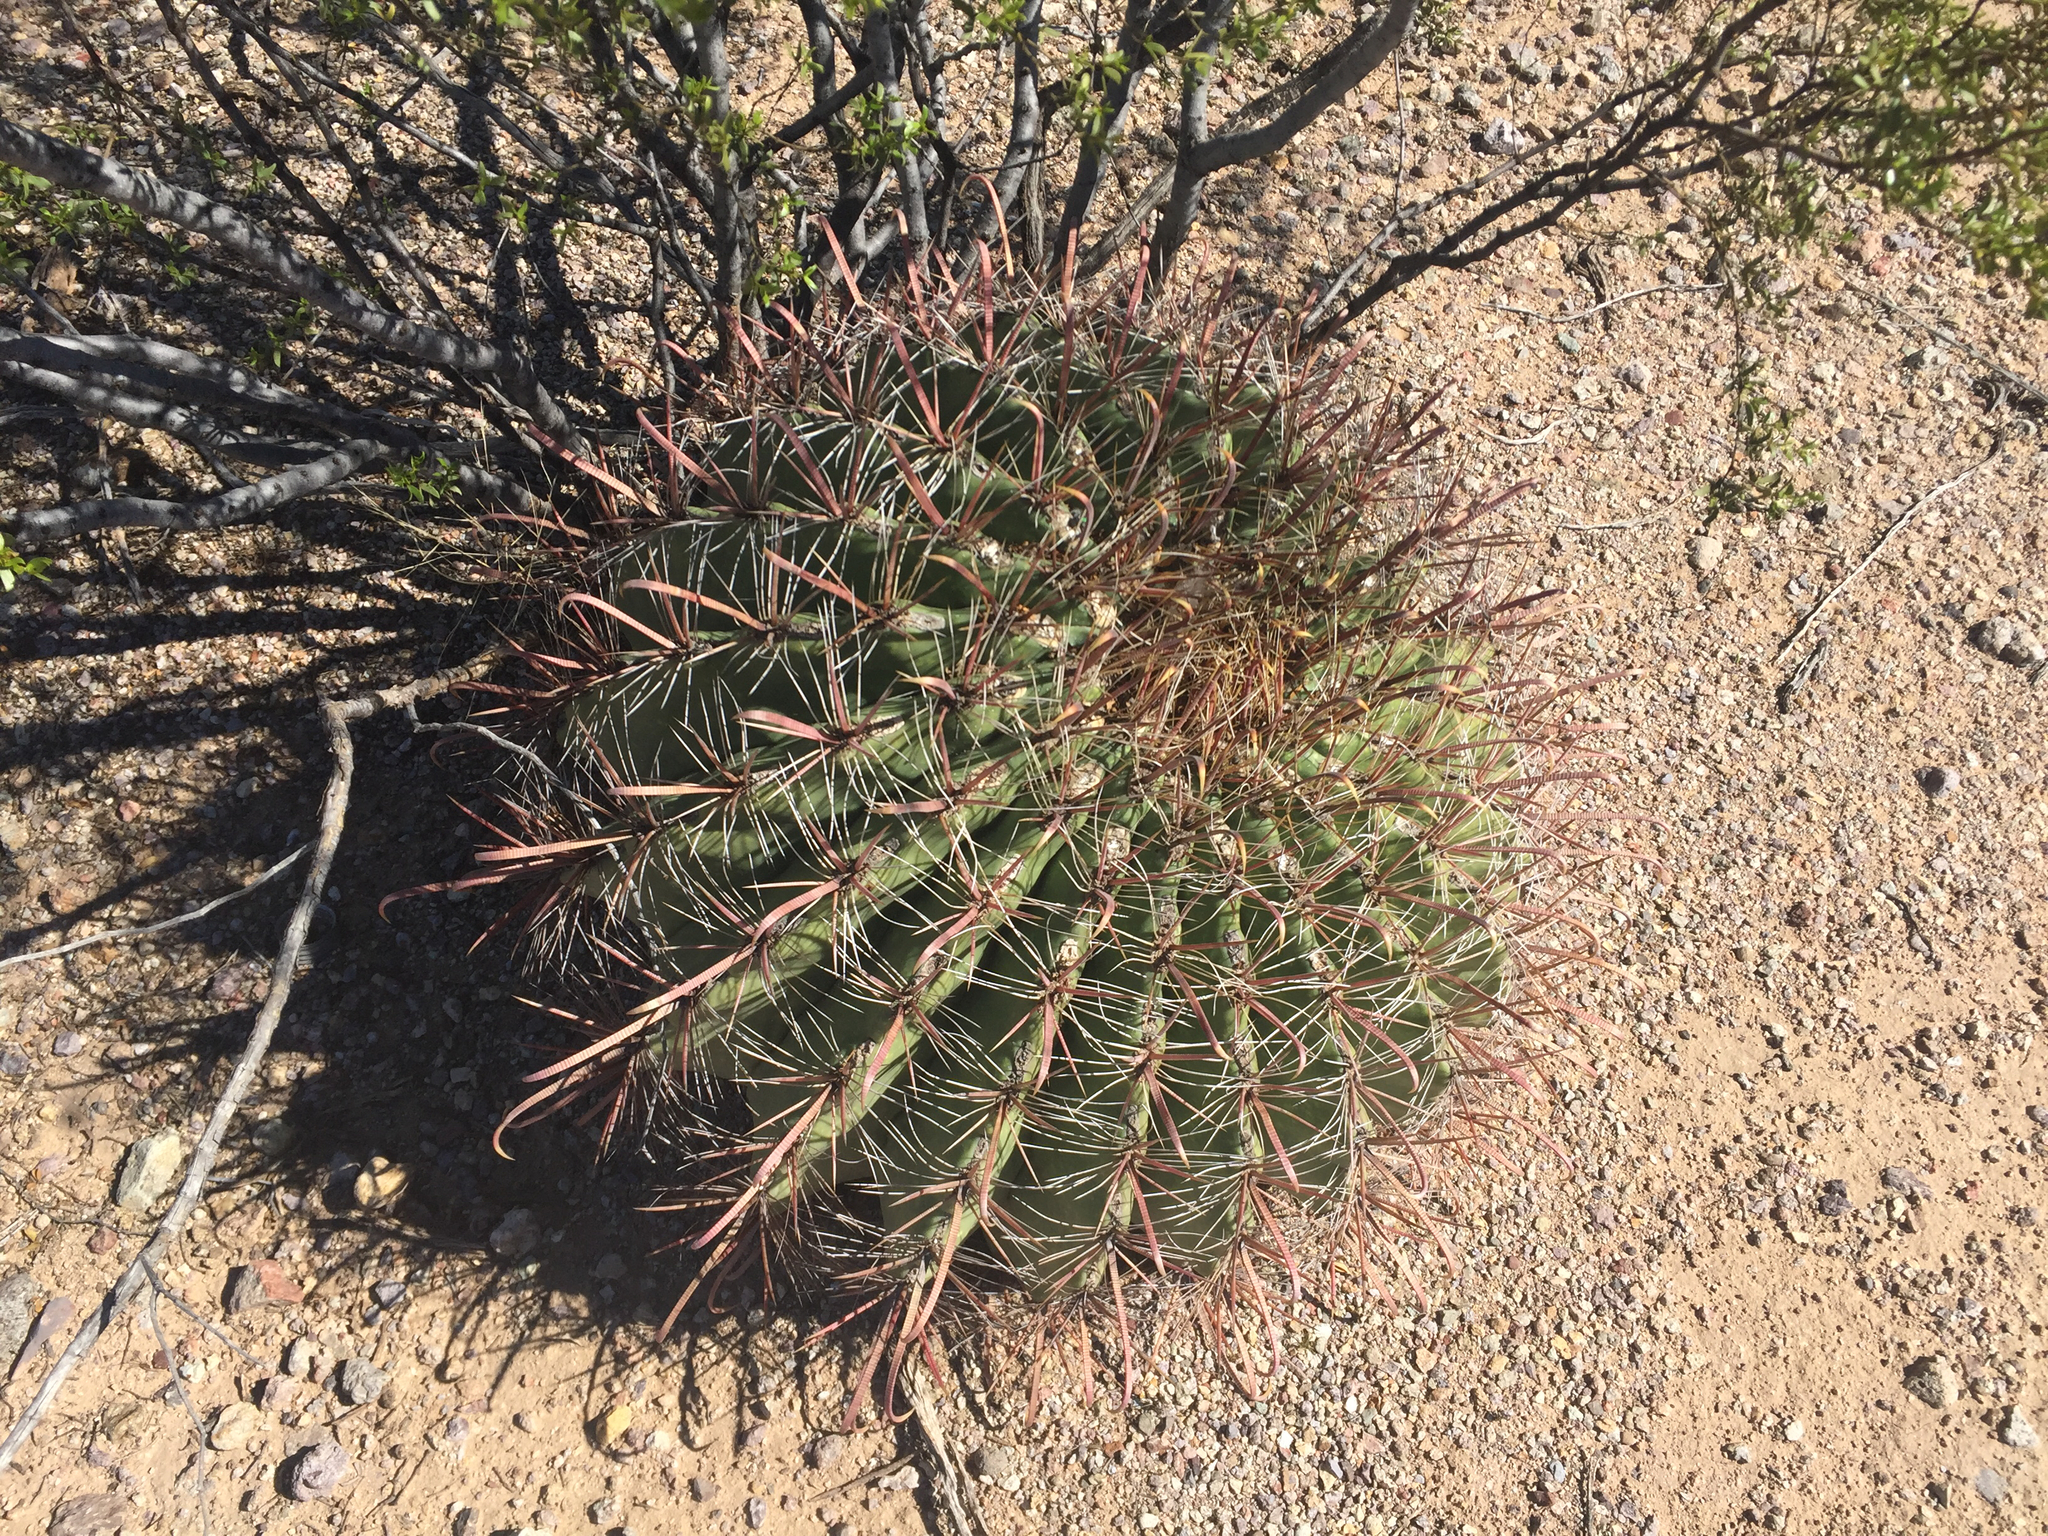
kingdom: Plantae
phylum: Tracheophyta
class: Magnoliopsida
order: Caryophyllales
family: Cactaceae
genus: Ferocactus
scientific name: Ferocactus wislizeni
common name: Candy barrel cactus
